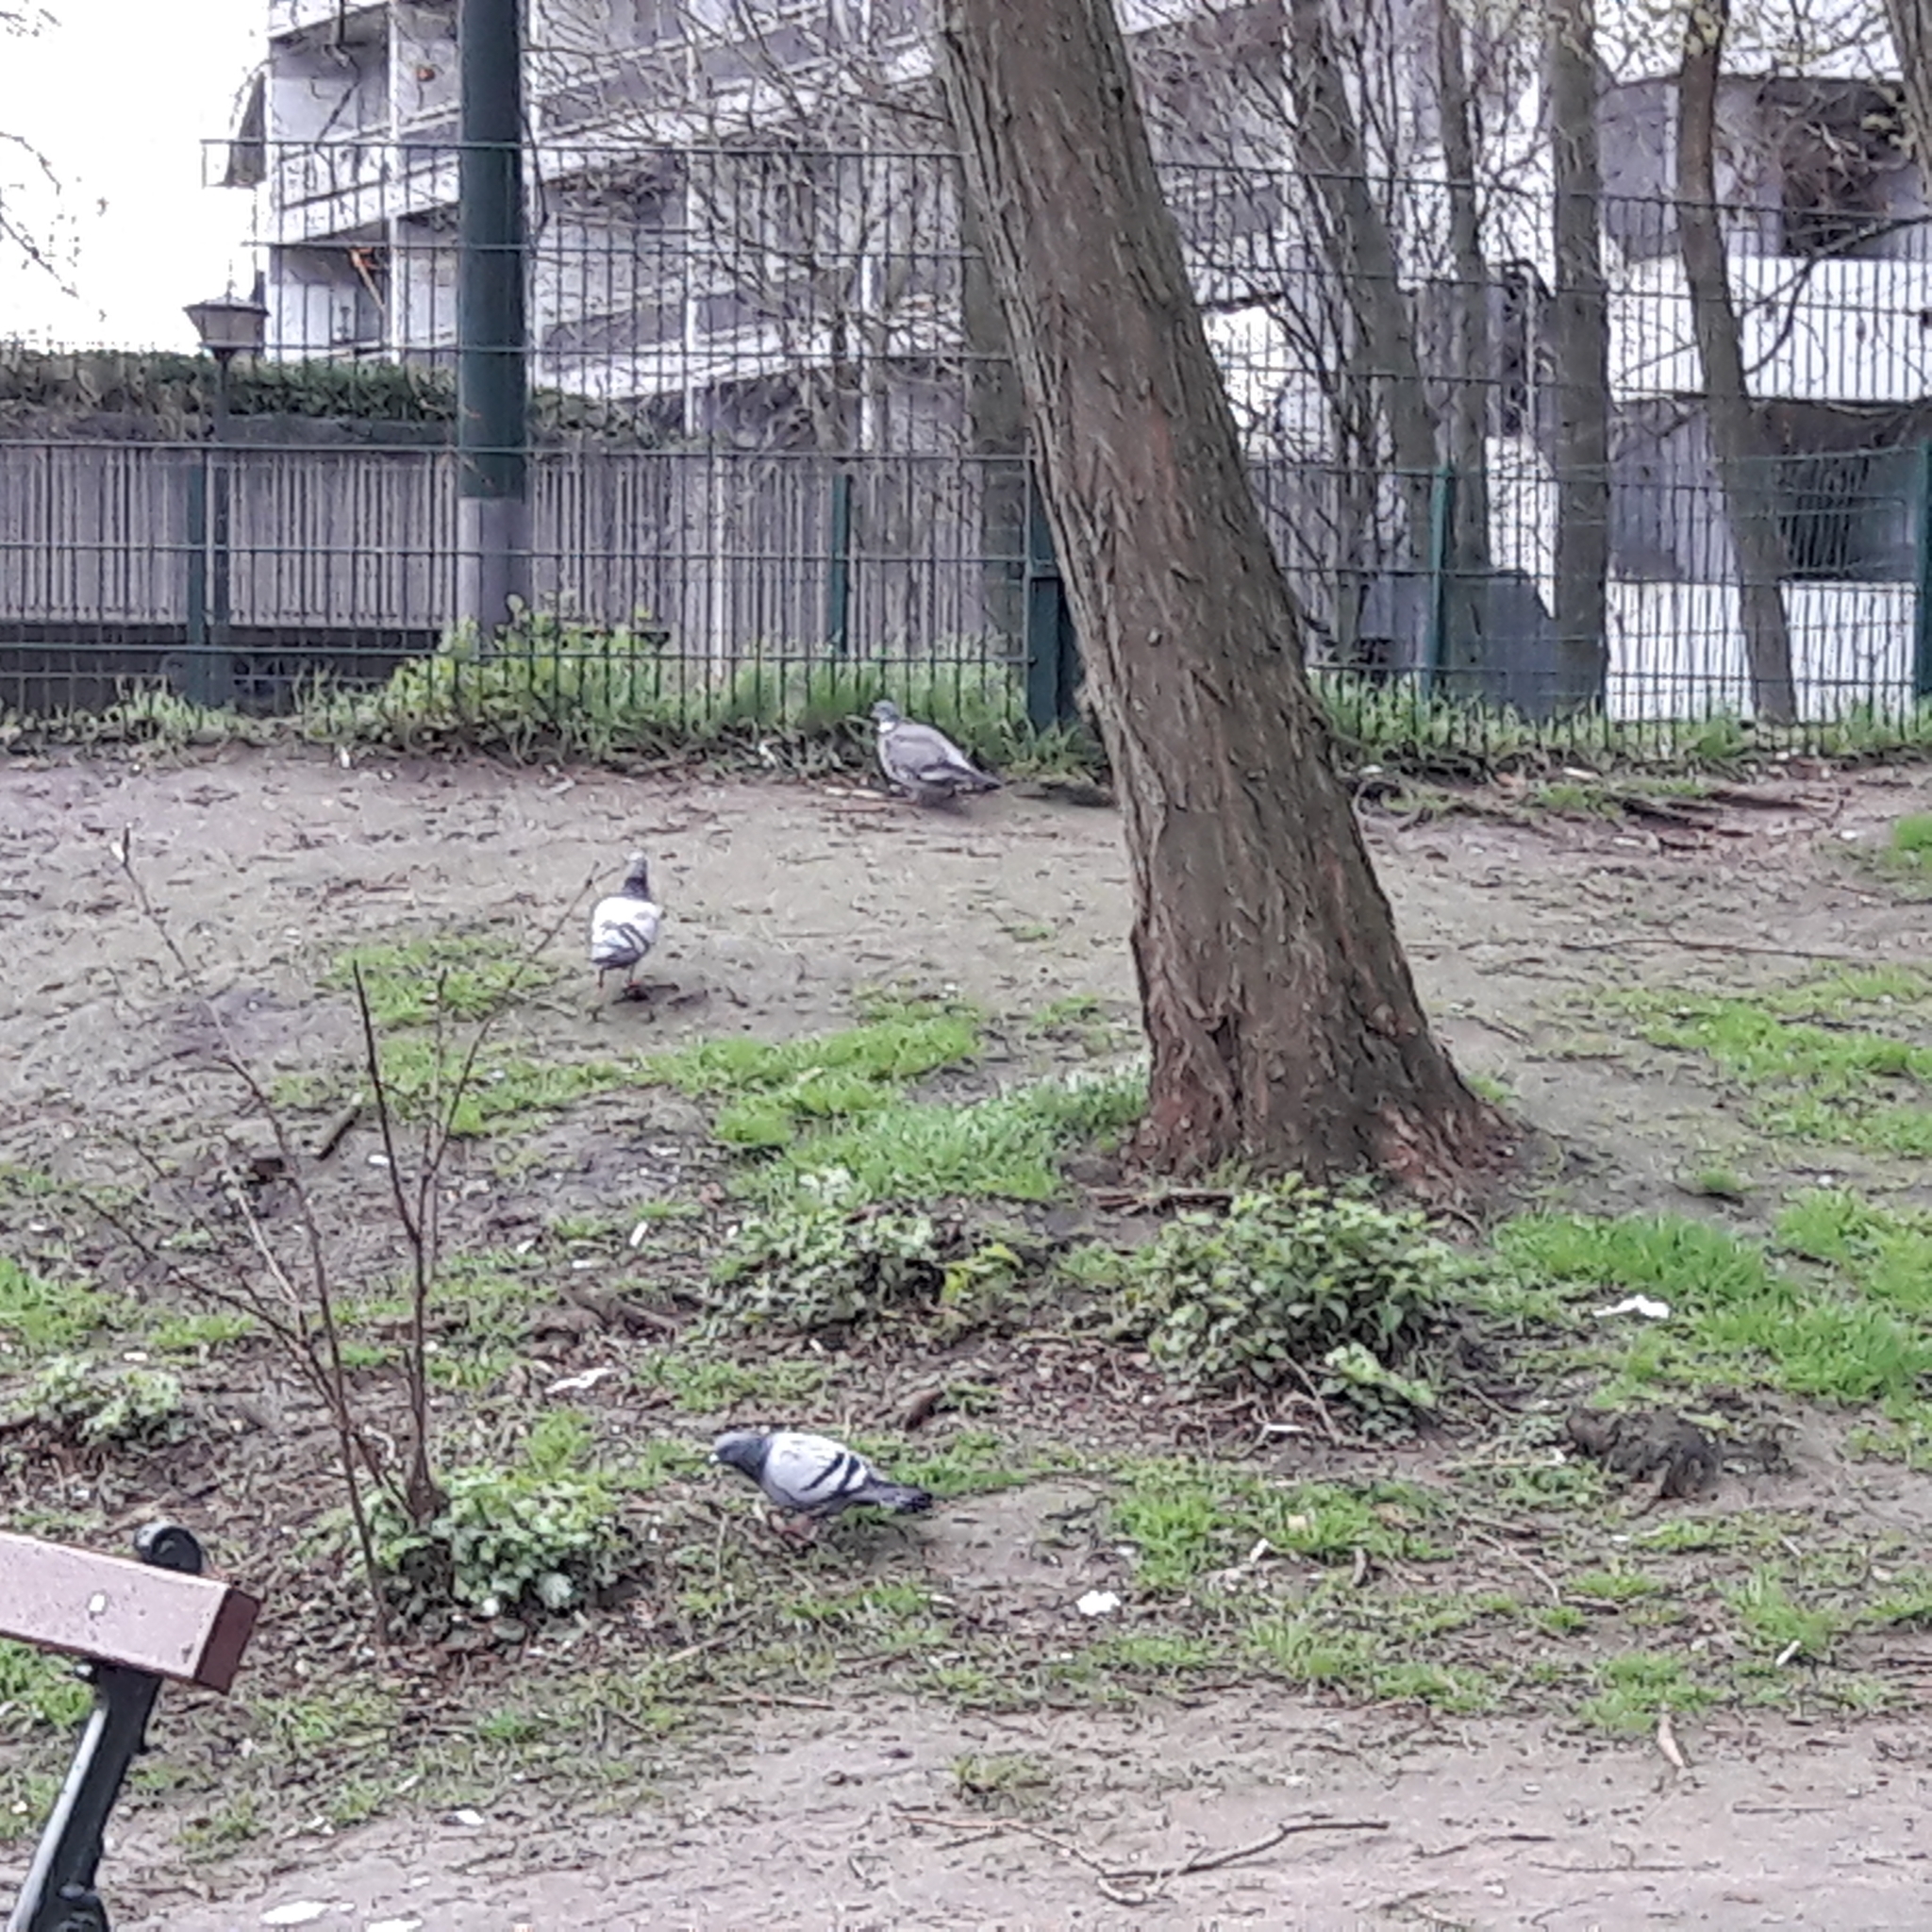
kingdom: Animalia
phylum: Chordata
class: Aves
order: Columbiformes
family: Columbidae
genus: Columba
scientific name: Columba livia
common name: Rock pigeon
